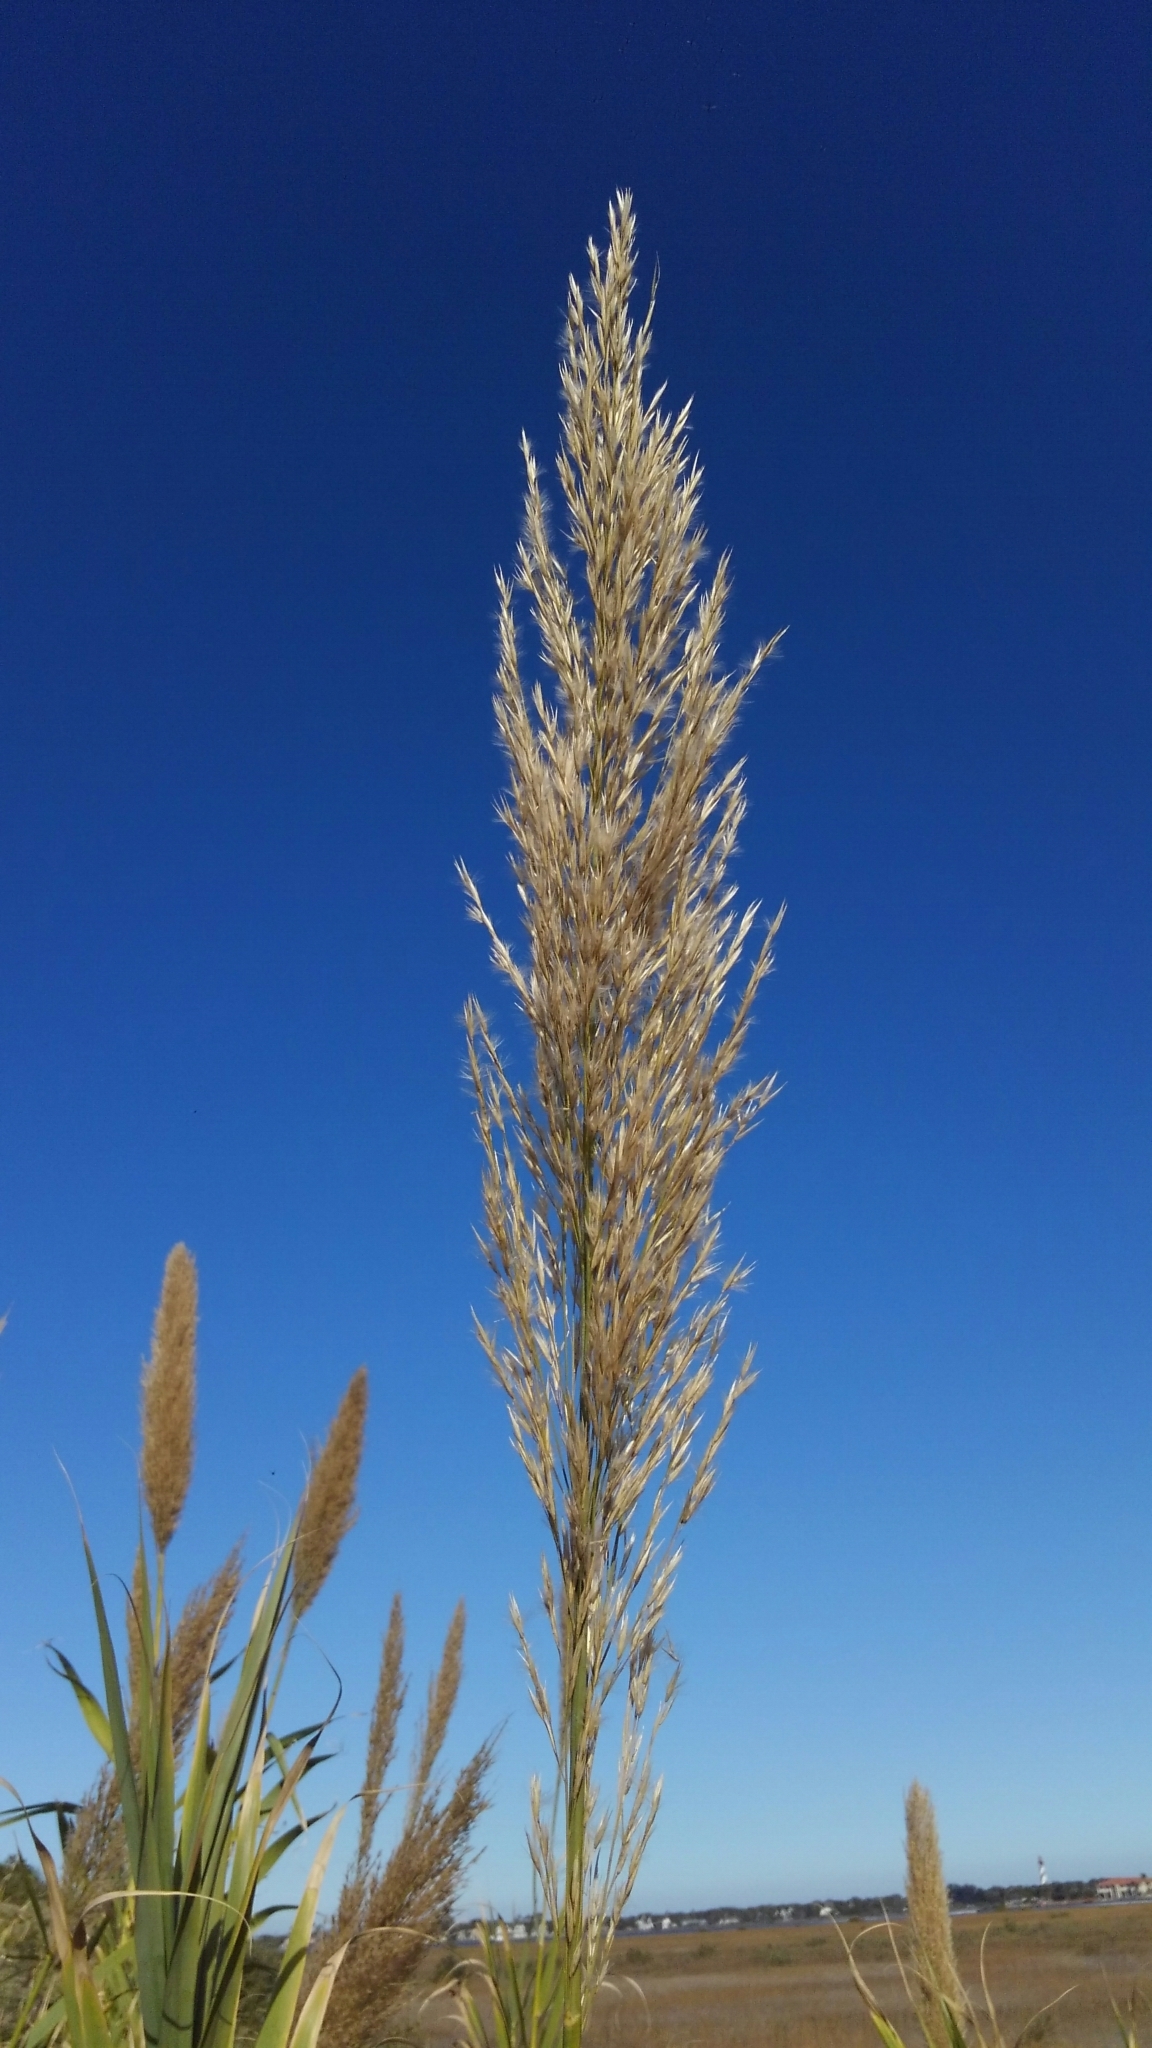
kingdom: Plantae
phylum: Tracheophyta
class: Liliopsida
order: Poales
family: Poaceae
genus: Arundo
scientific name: Arundo donax
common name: Giant reed
